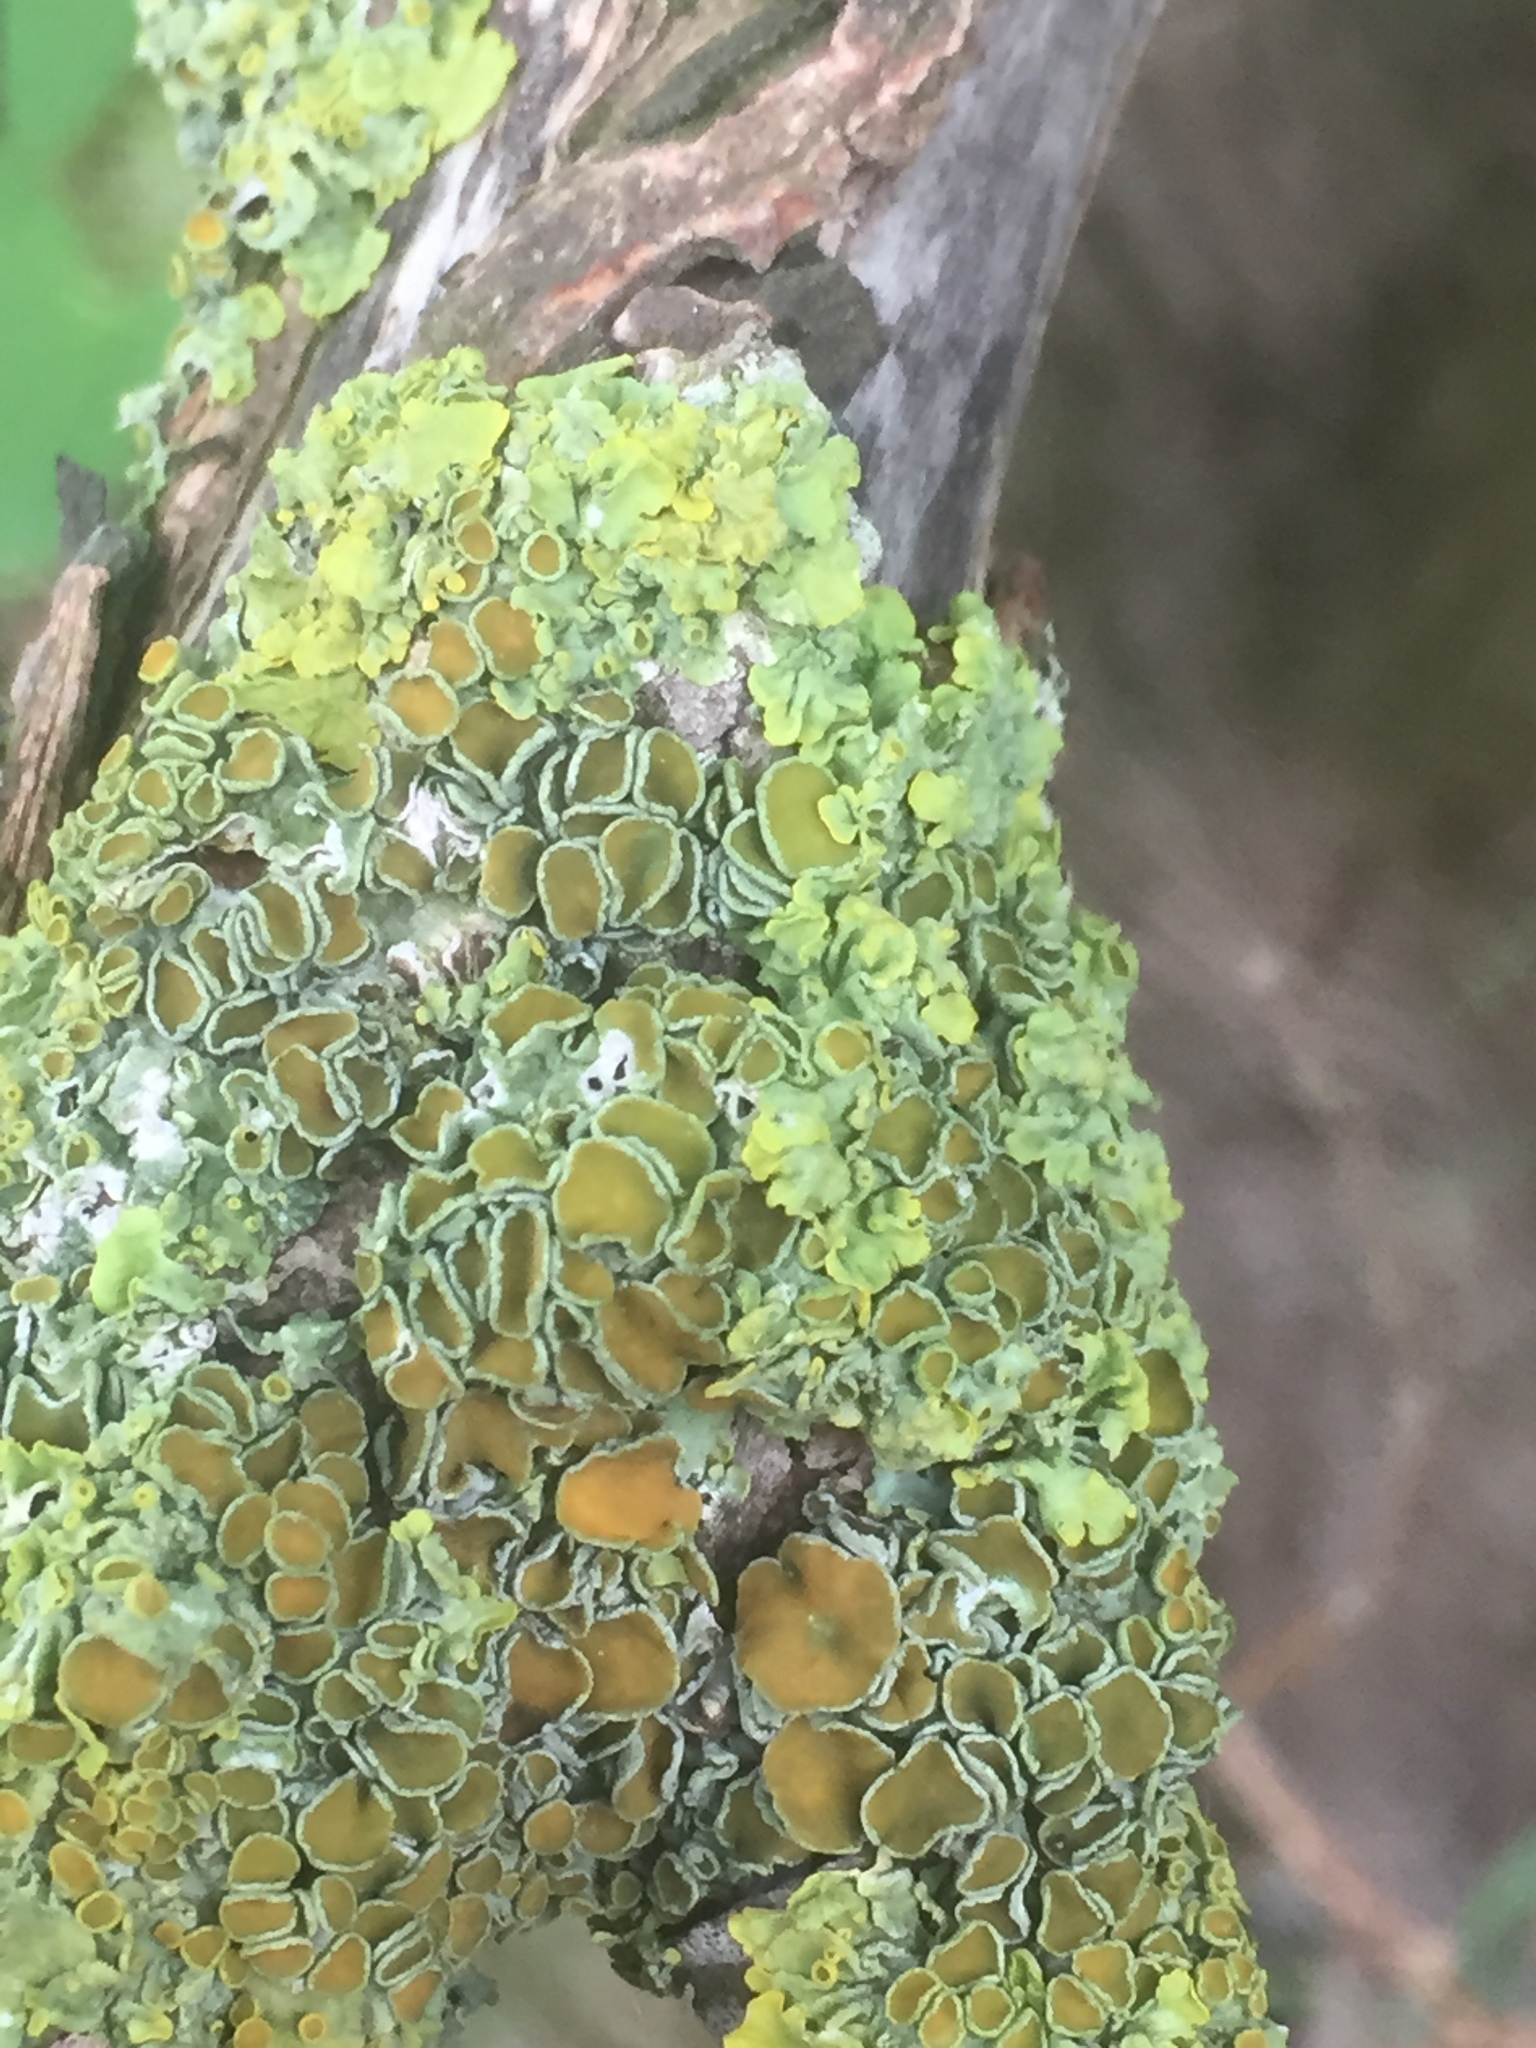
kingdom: Fungi
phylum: Ascomycota
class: Lecanoromycetes
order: Teloschistales
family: Teloschistaceae
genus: Xanthoria
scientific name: Xanthoria parietina
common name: Common orange lichen
